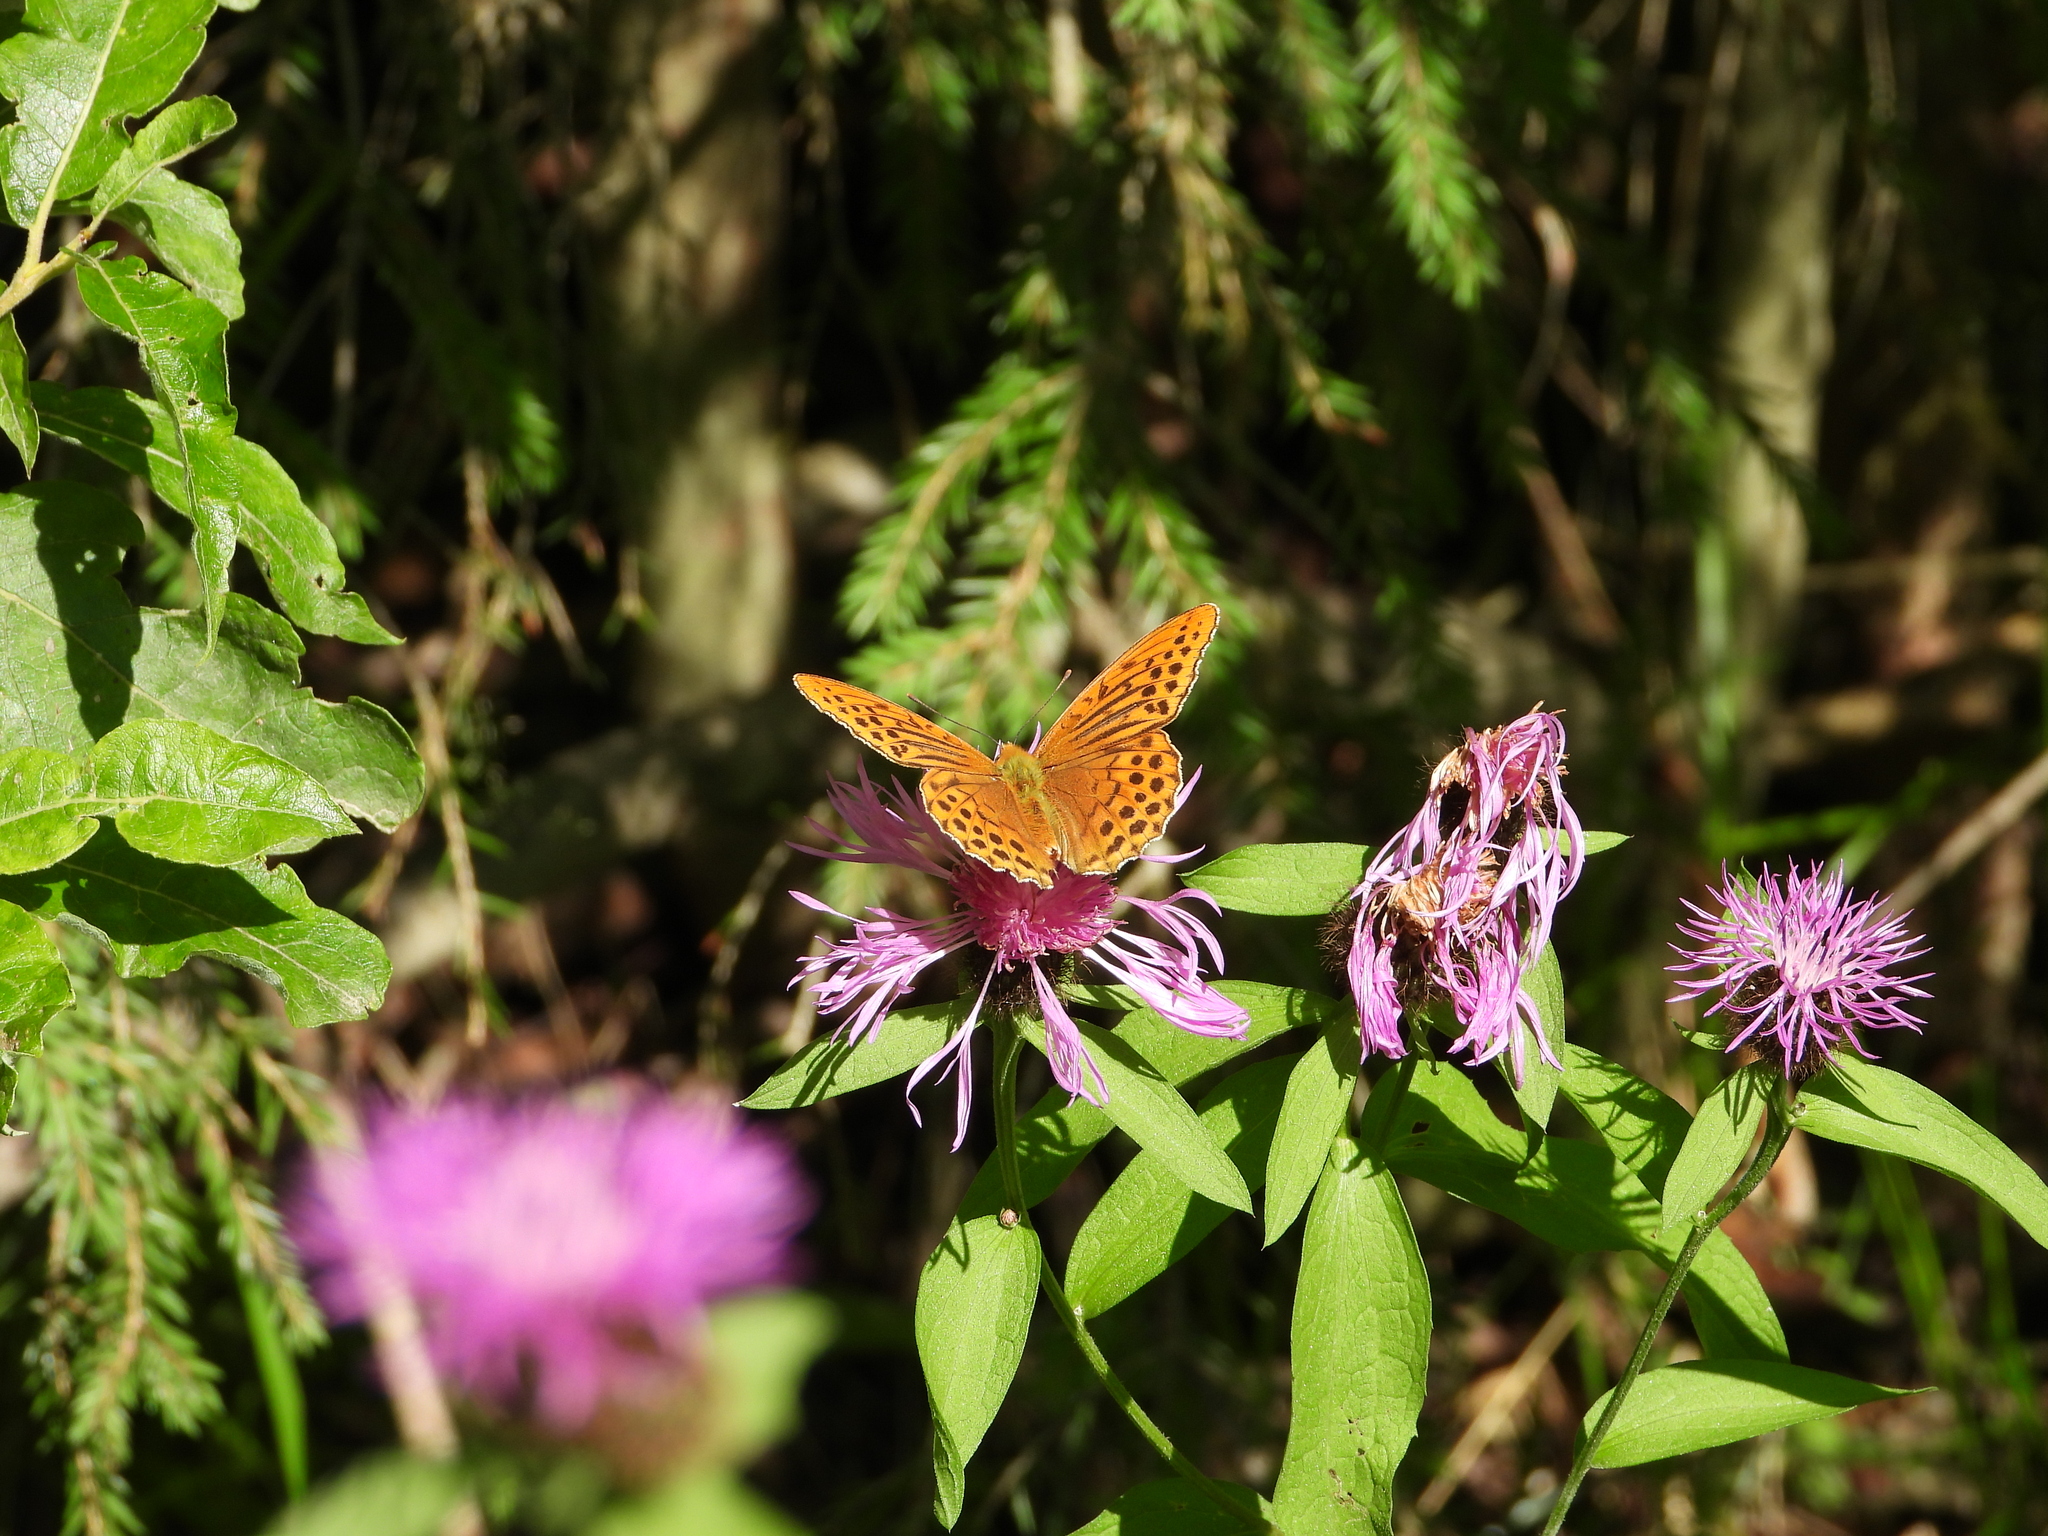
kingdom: Animalia
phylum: Arthropoda
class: Insecta
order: Lepidoptera
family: Nymphalidae
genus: Argynnis
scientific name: Argynnis paphia
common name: Silver-washed fritillary
